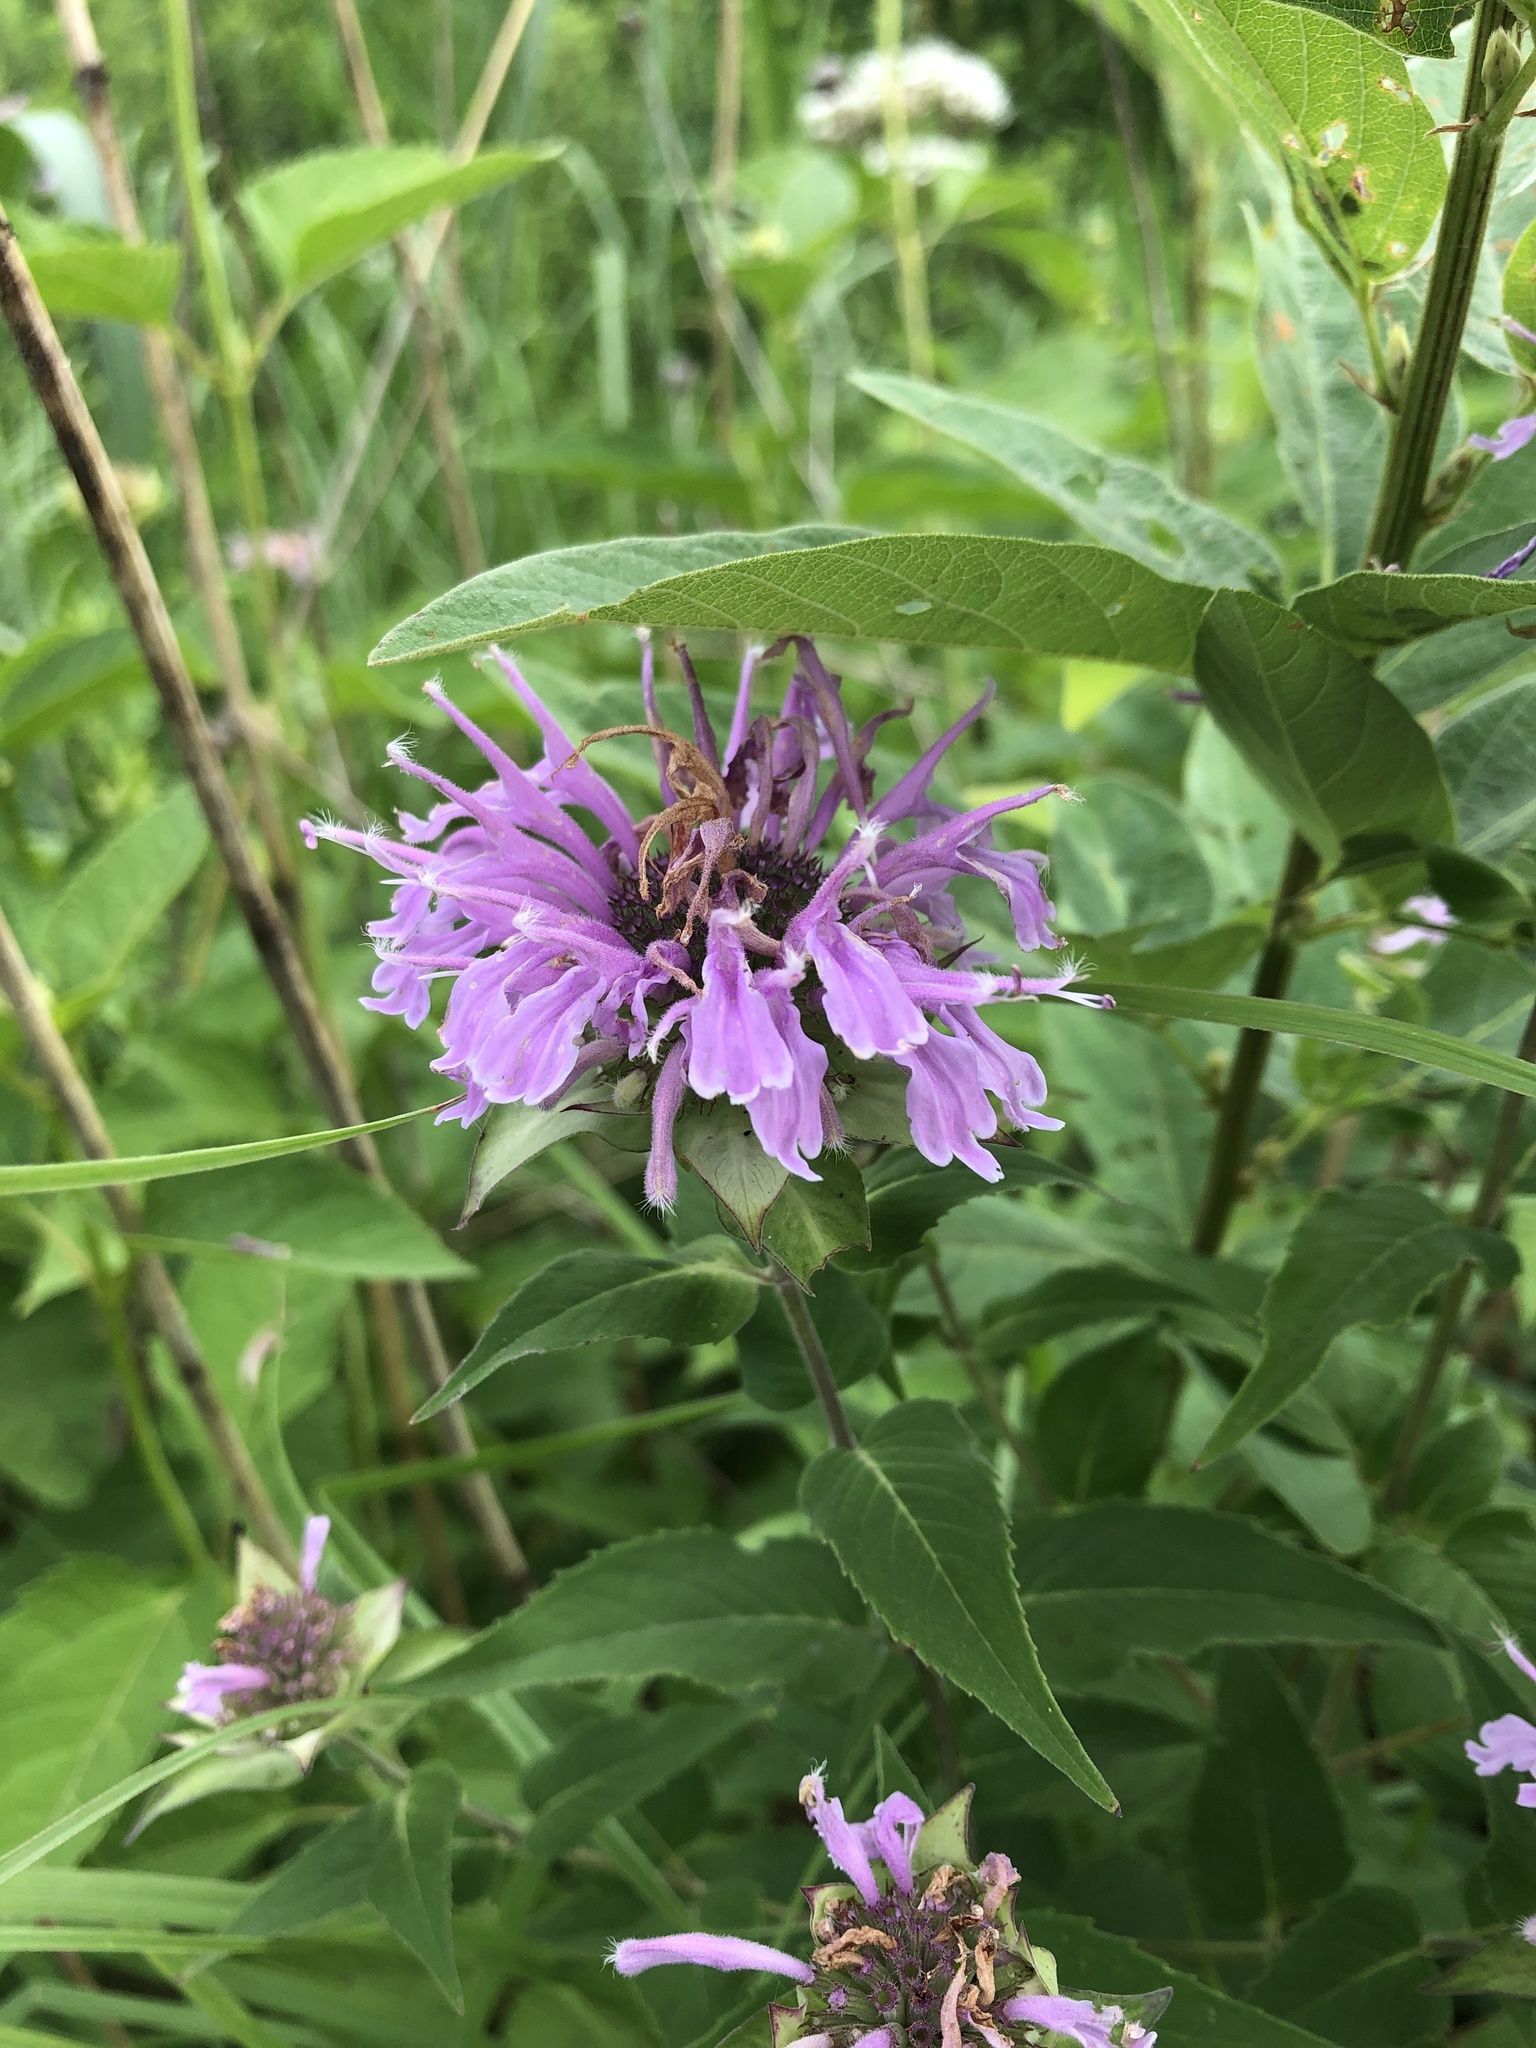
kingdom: Plantae
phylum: Tracheophyta
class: Magnoliopsida
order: Lamiales
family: Lamiaceae
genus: Monarda
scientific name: Monarda fistulosa
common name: Purple beebalm
